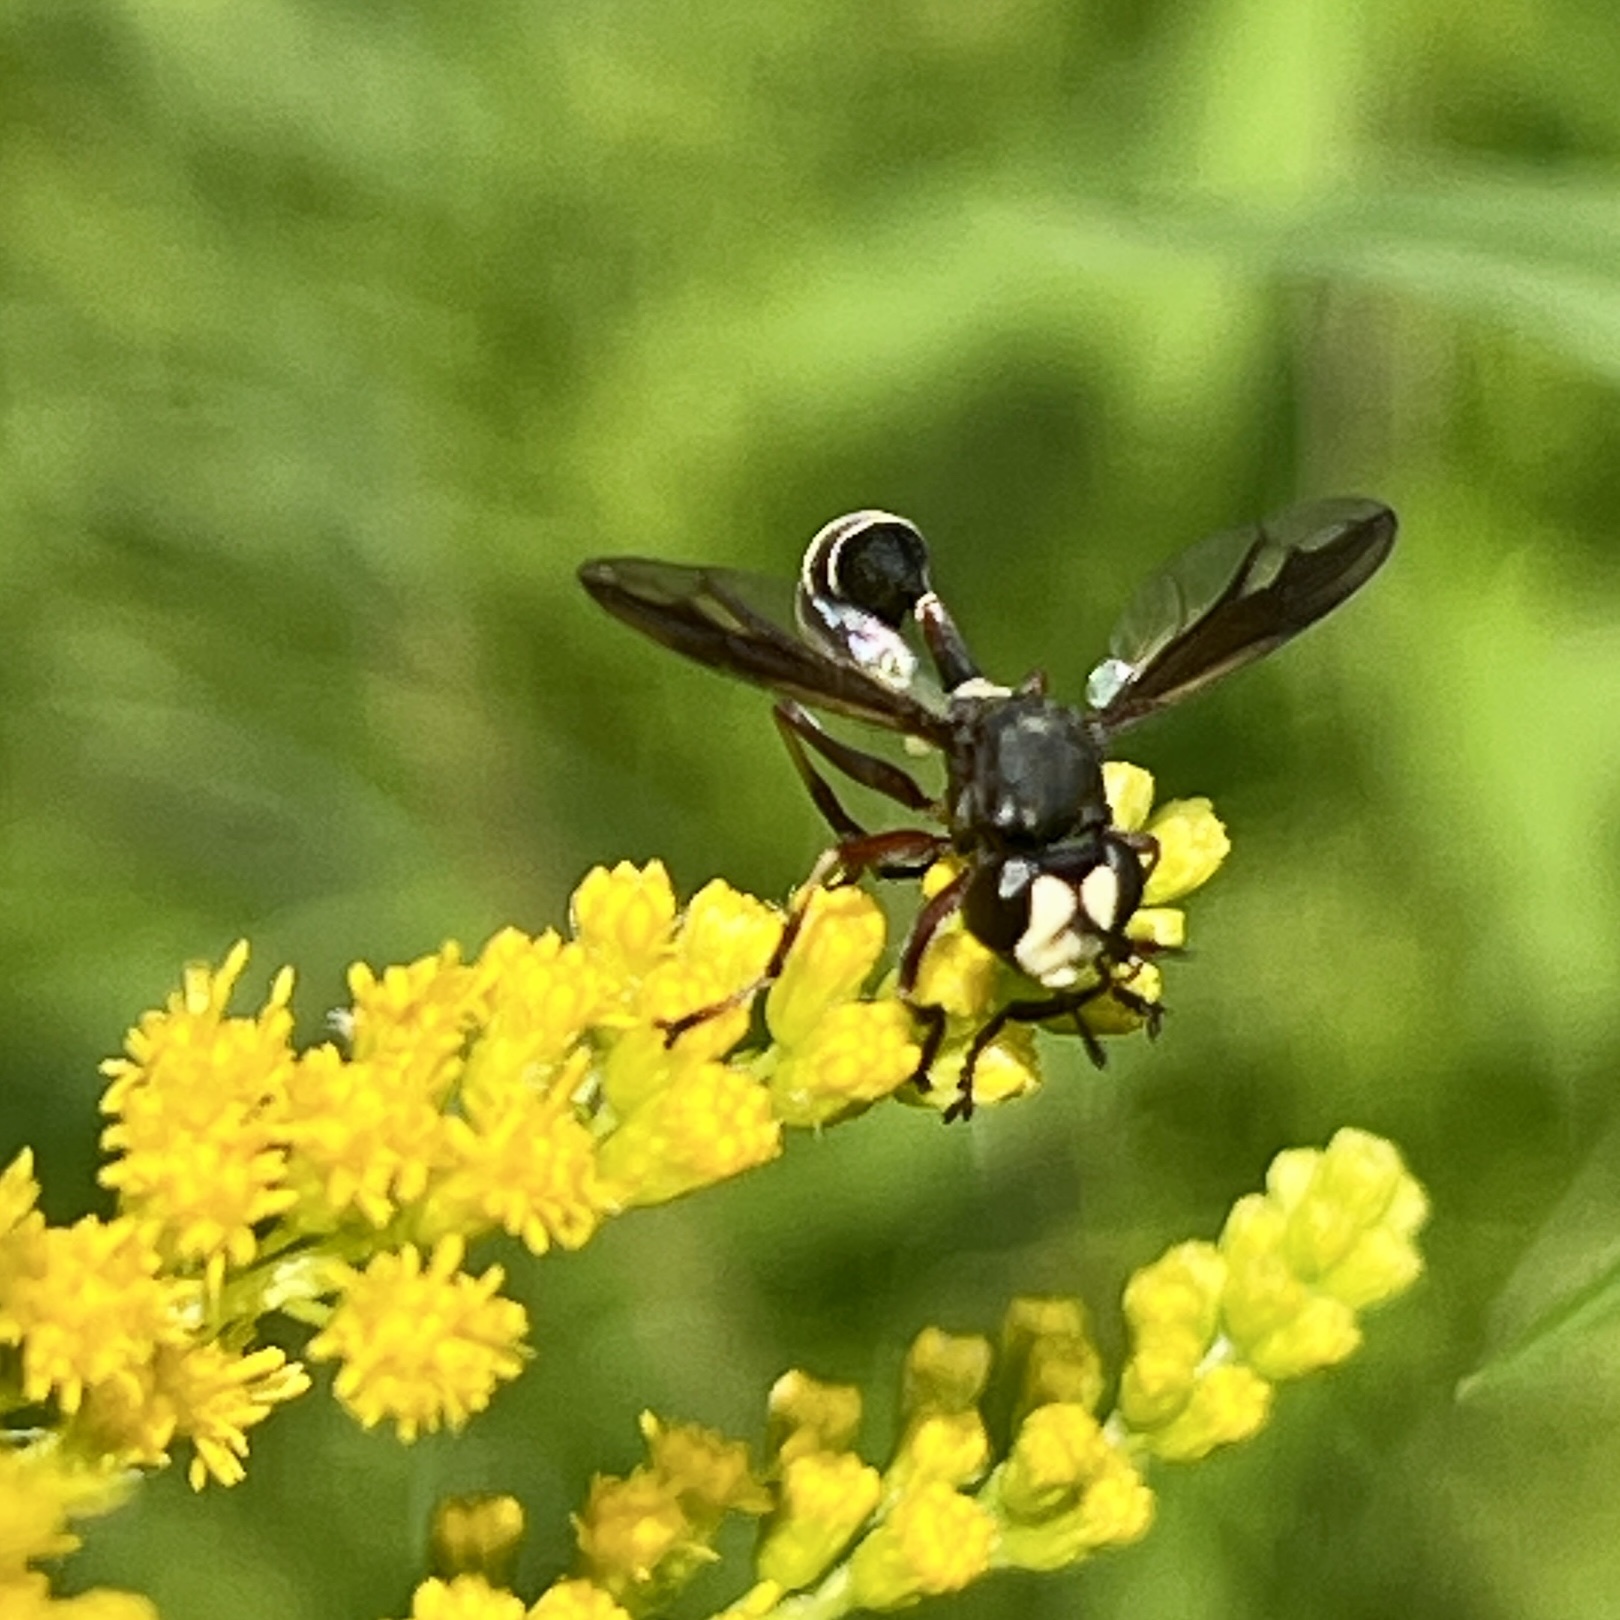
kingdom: Animalia
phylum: Arthropoda
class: Insecta
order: Diptera
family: Conopidae
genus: Physocephala
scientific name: Physocephala furcillata
